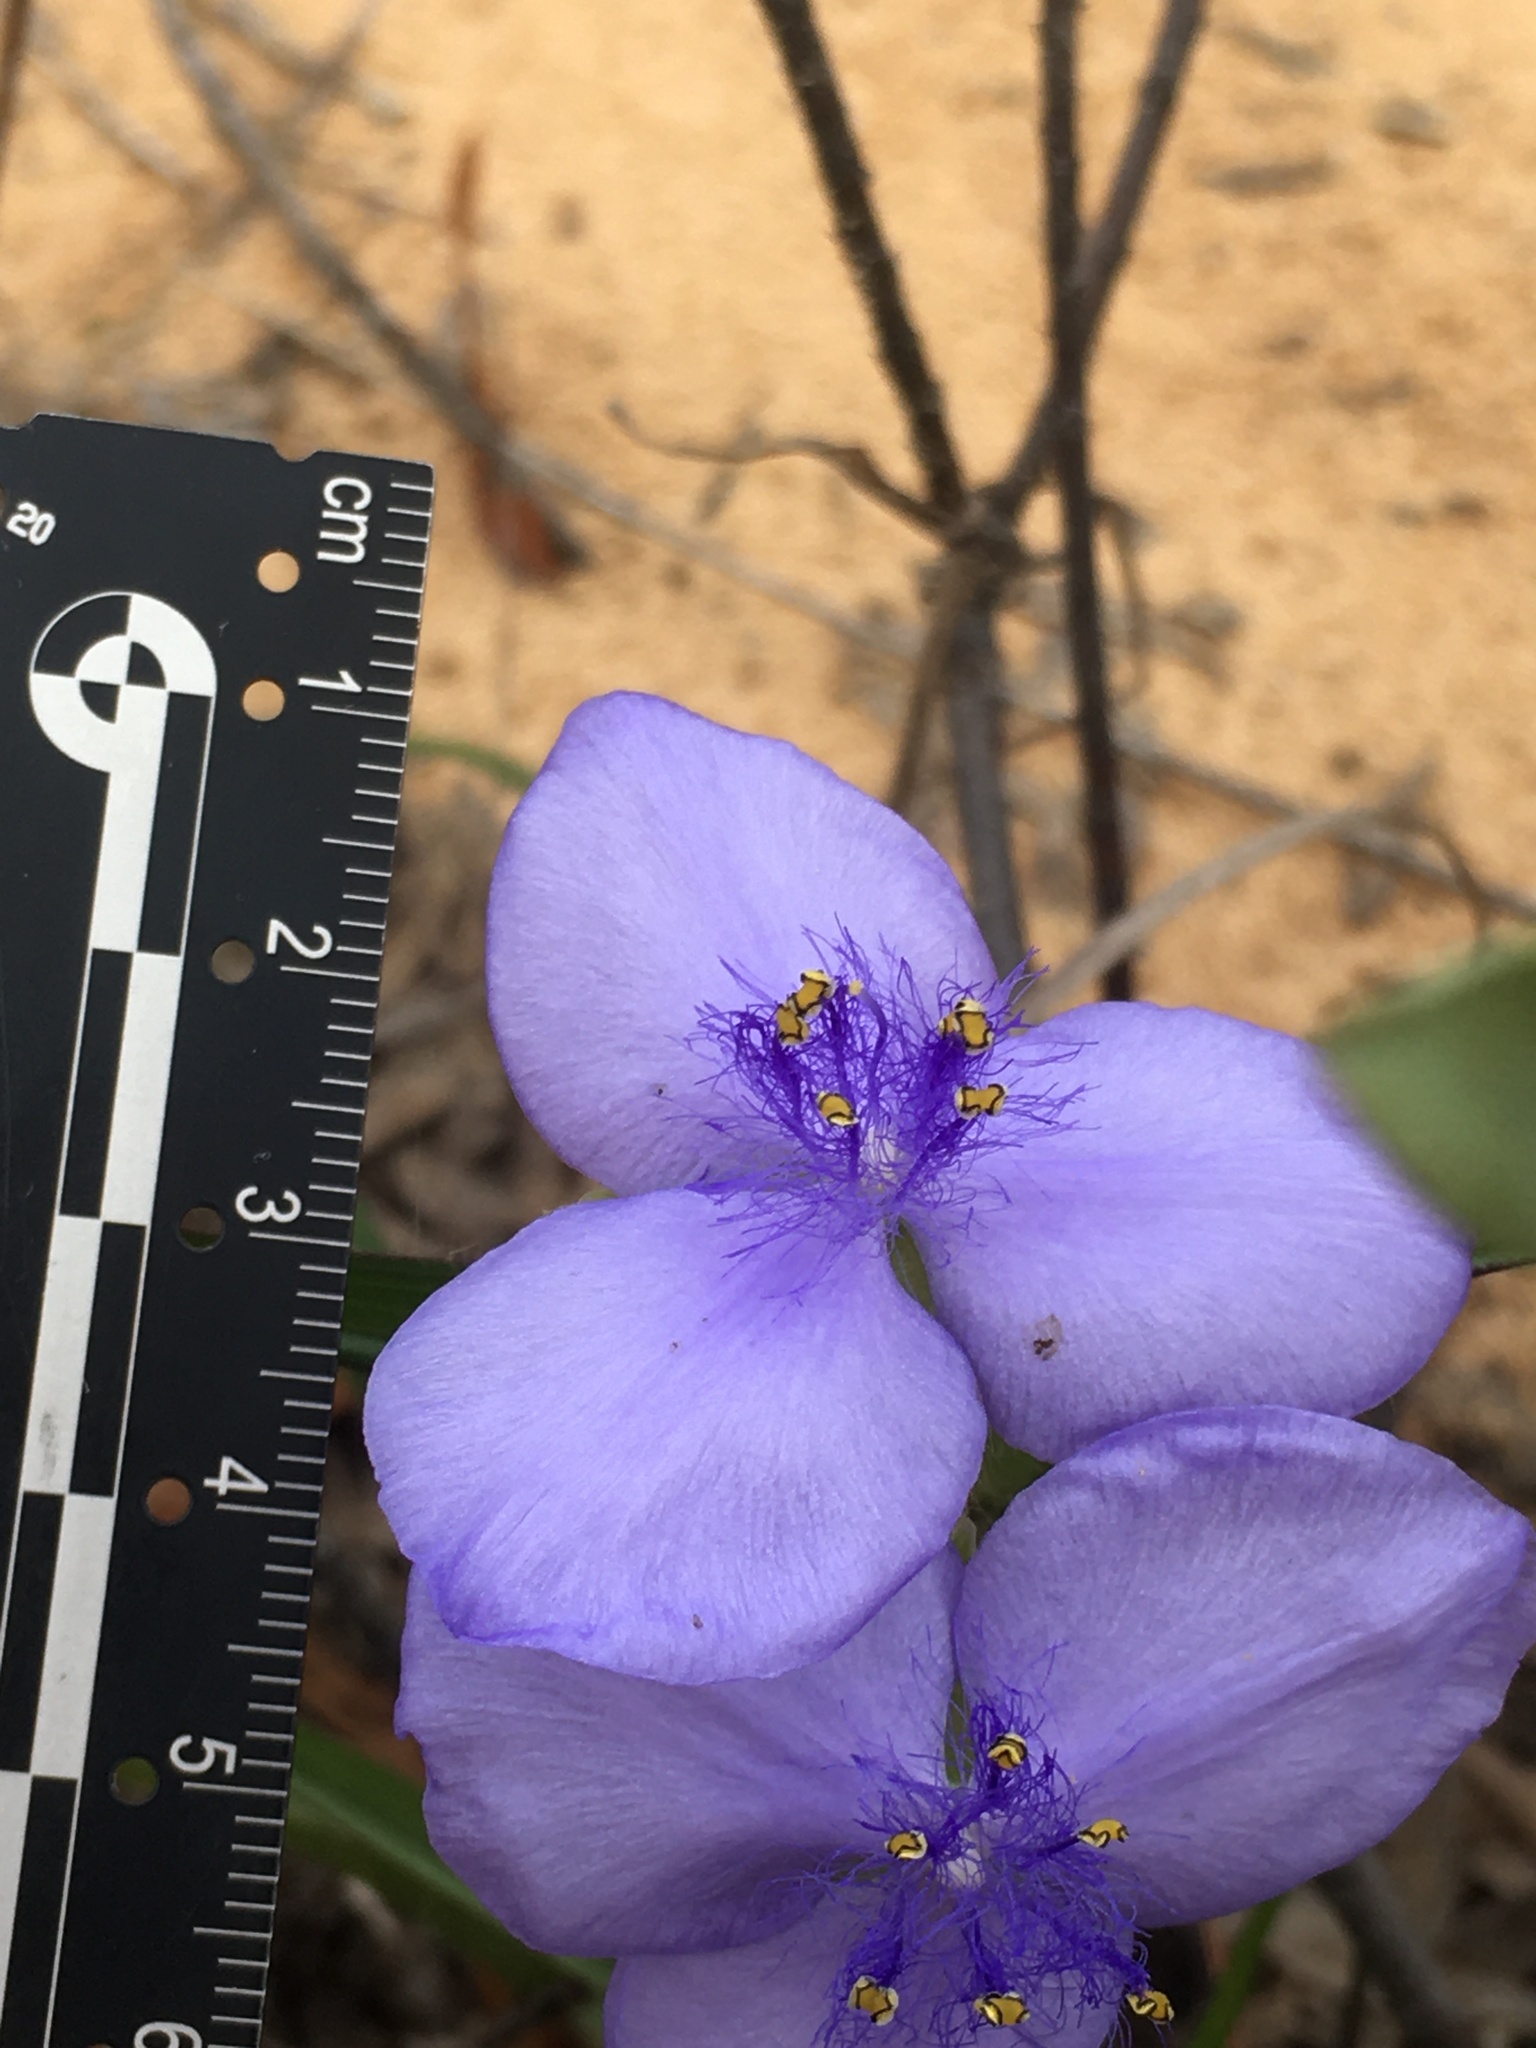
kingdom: Plantae
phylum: Tracheophyta
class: Liliopsida
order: Commelinales
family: Commelinaceae
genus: Tradescantia
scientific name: Tradescantia hirsutiflora
